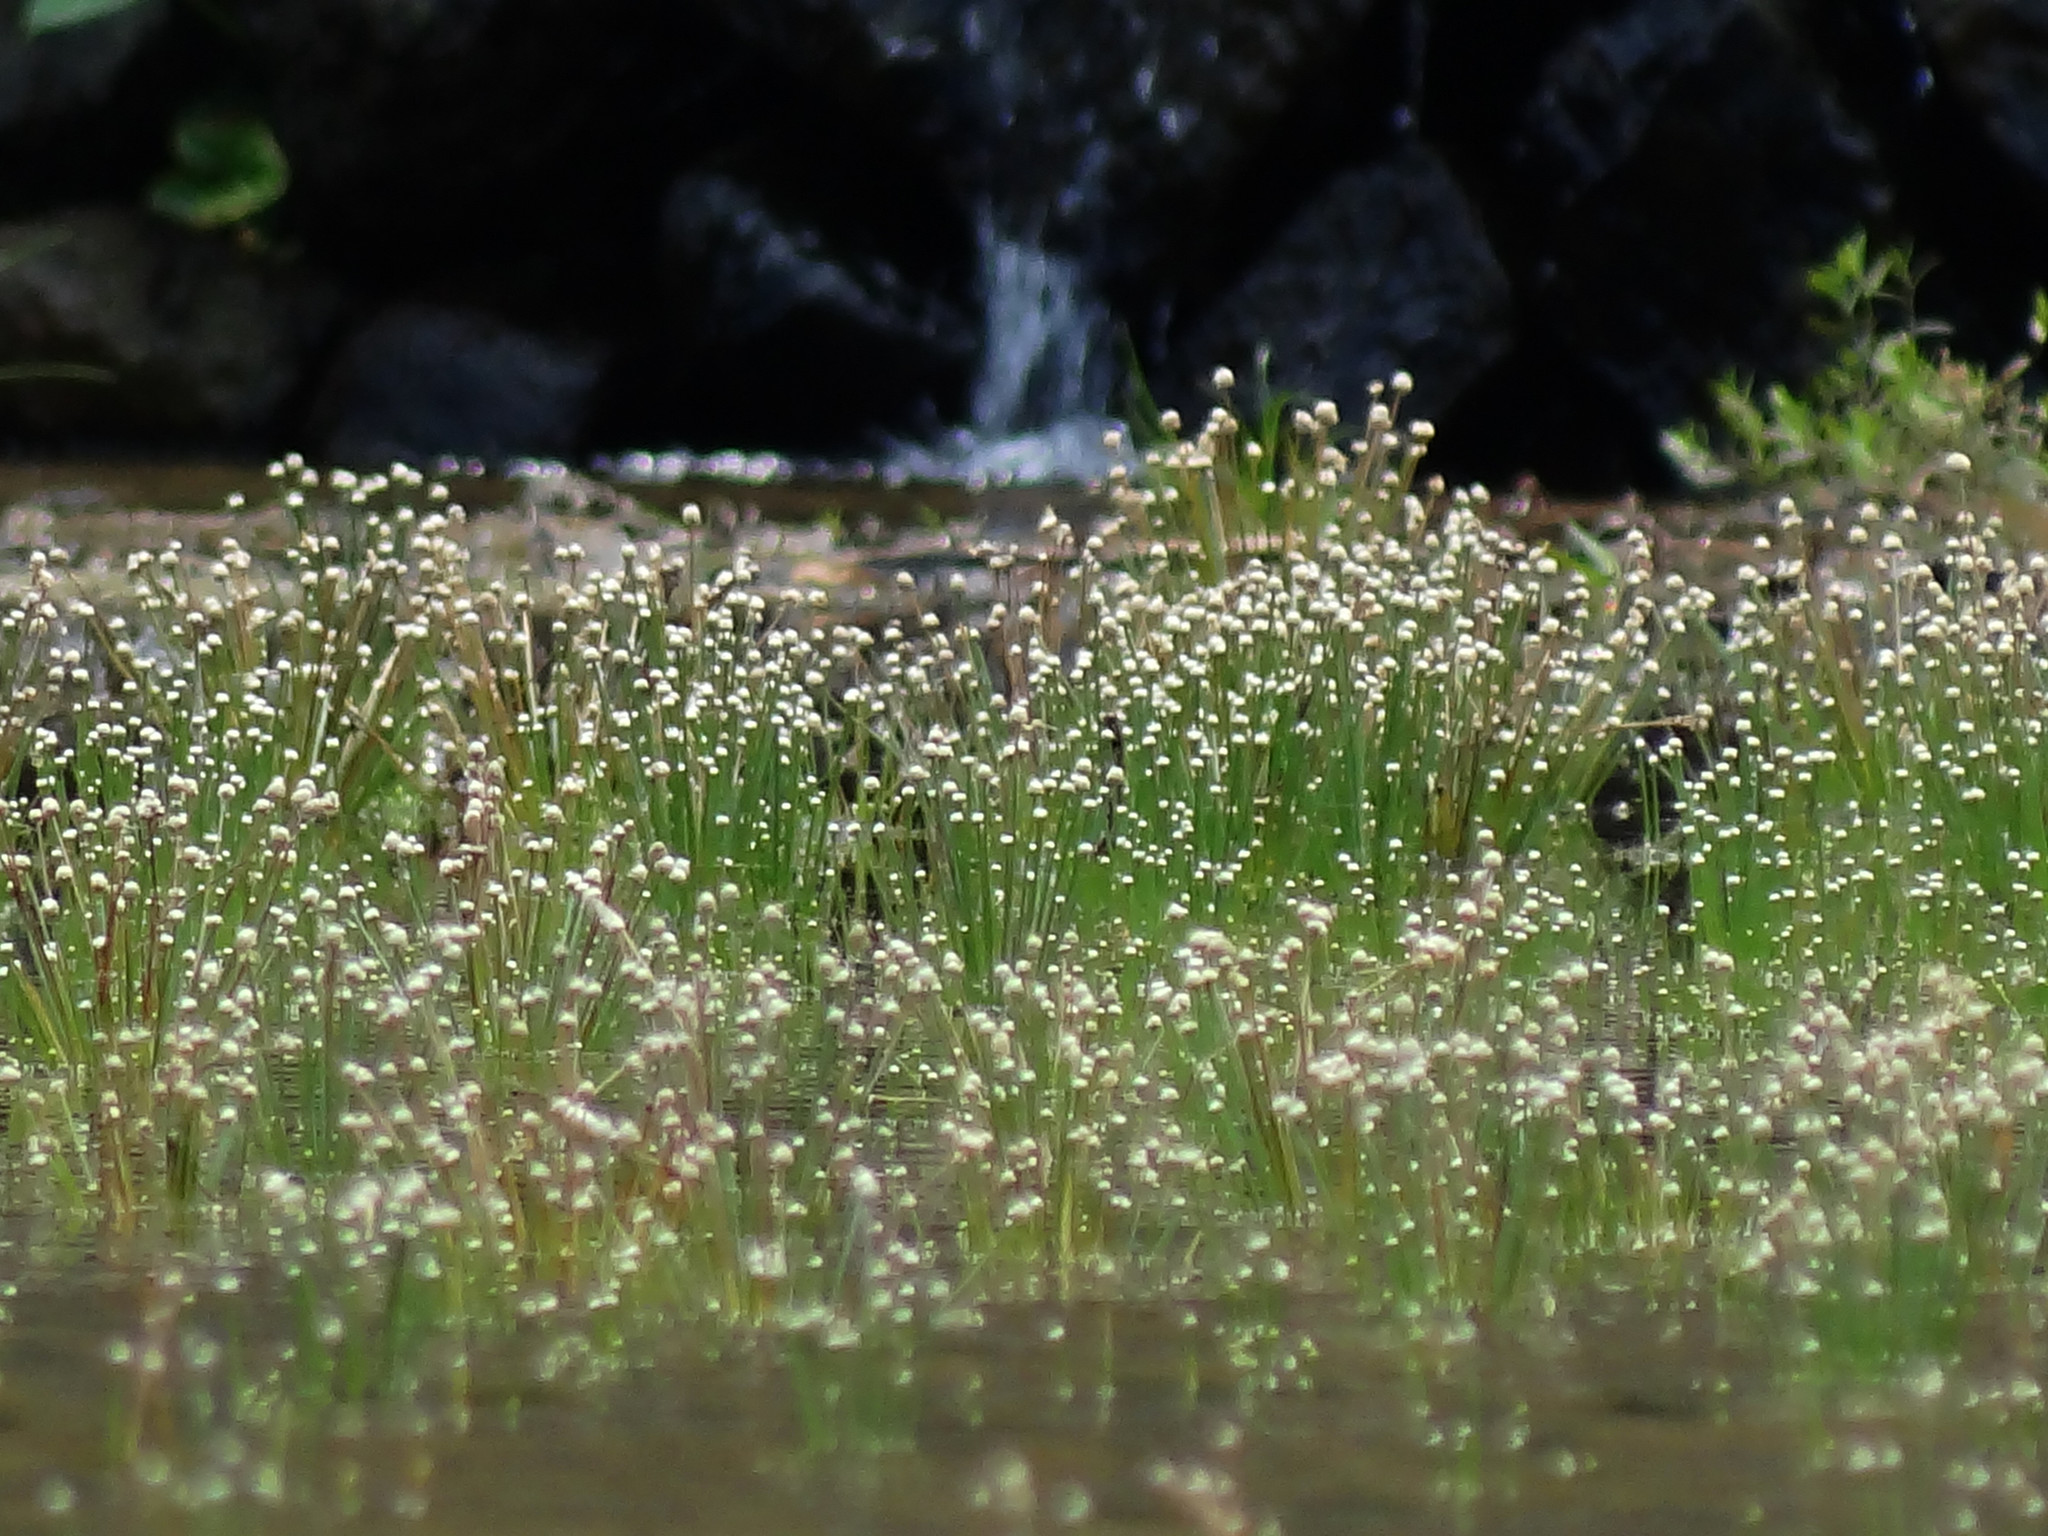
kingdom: Plantae
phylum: Tracheophyta
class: Liliopsida
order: Poales
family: Eriocaulaceae
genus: Eriocaulon
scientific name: Eriocaulon cinereum
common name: Ashy pipewort
